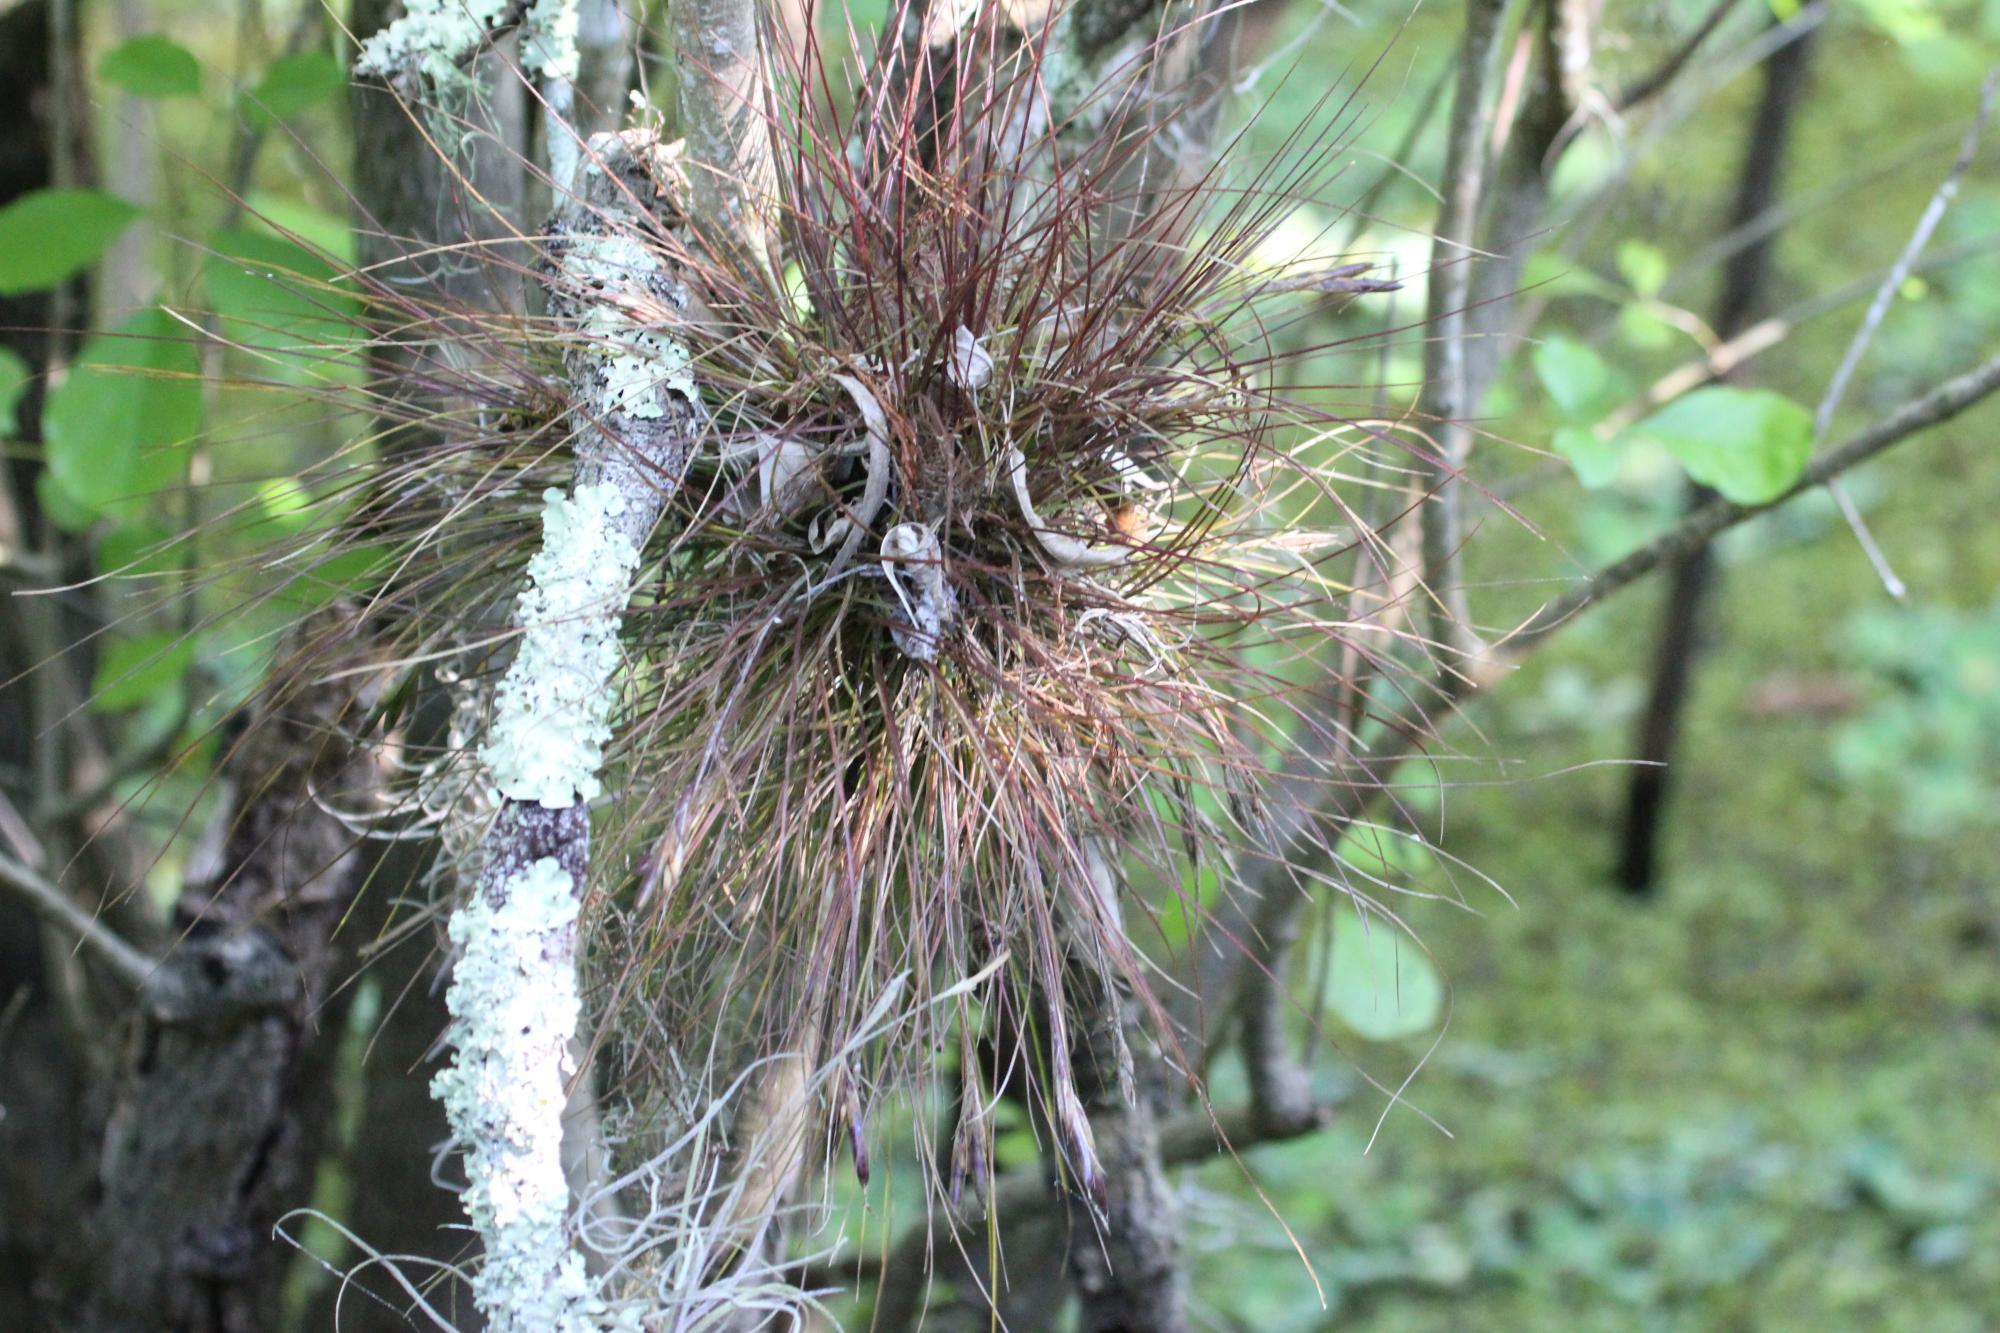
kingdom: Plantae
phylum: Tracheophyta
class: Liliopsida
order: Poales
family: Bromeliaceae
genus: Tillandsia
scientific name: Tillandsia setacea
